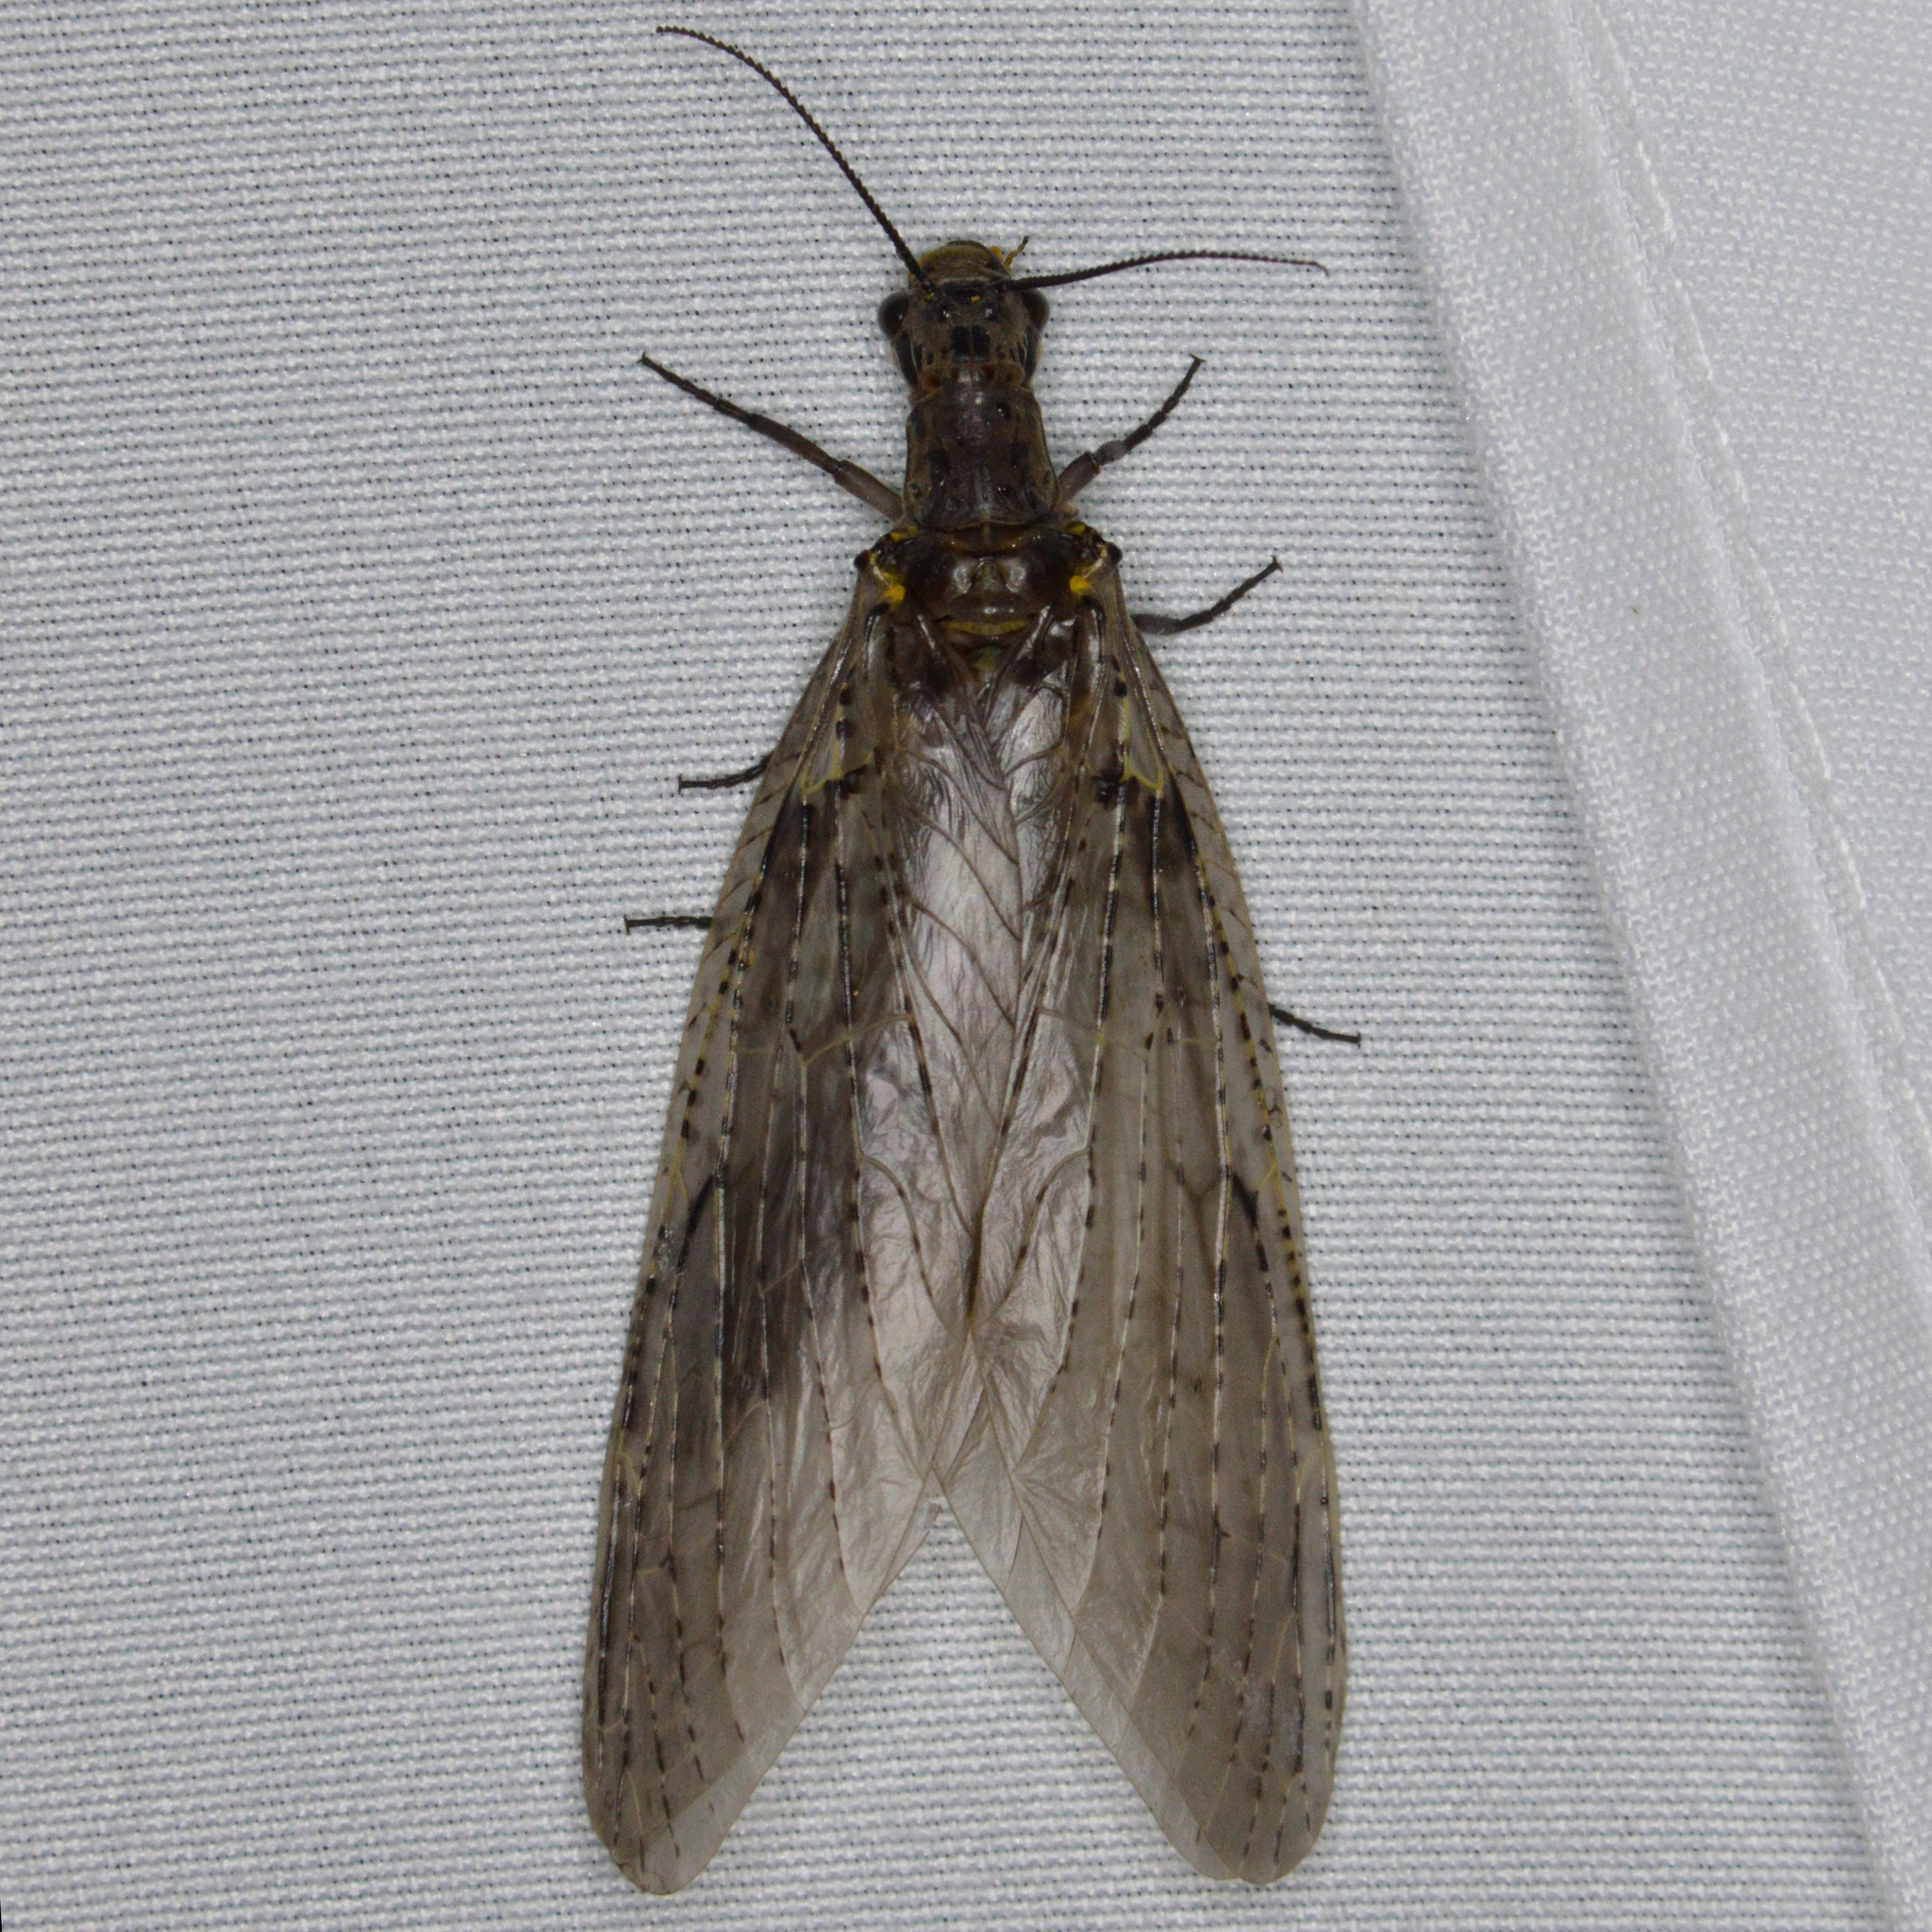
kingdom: Animalia
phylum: Arthropoda
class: Insecta
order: Megaloptera
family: Corydalidae
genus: Chauliodes
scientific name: Chauliodes rastricornis
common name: Spring fishfly
